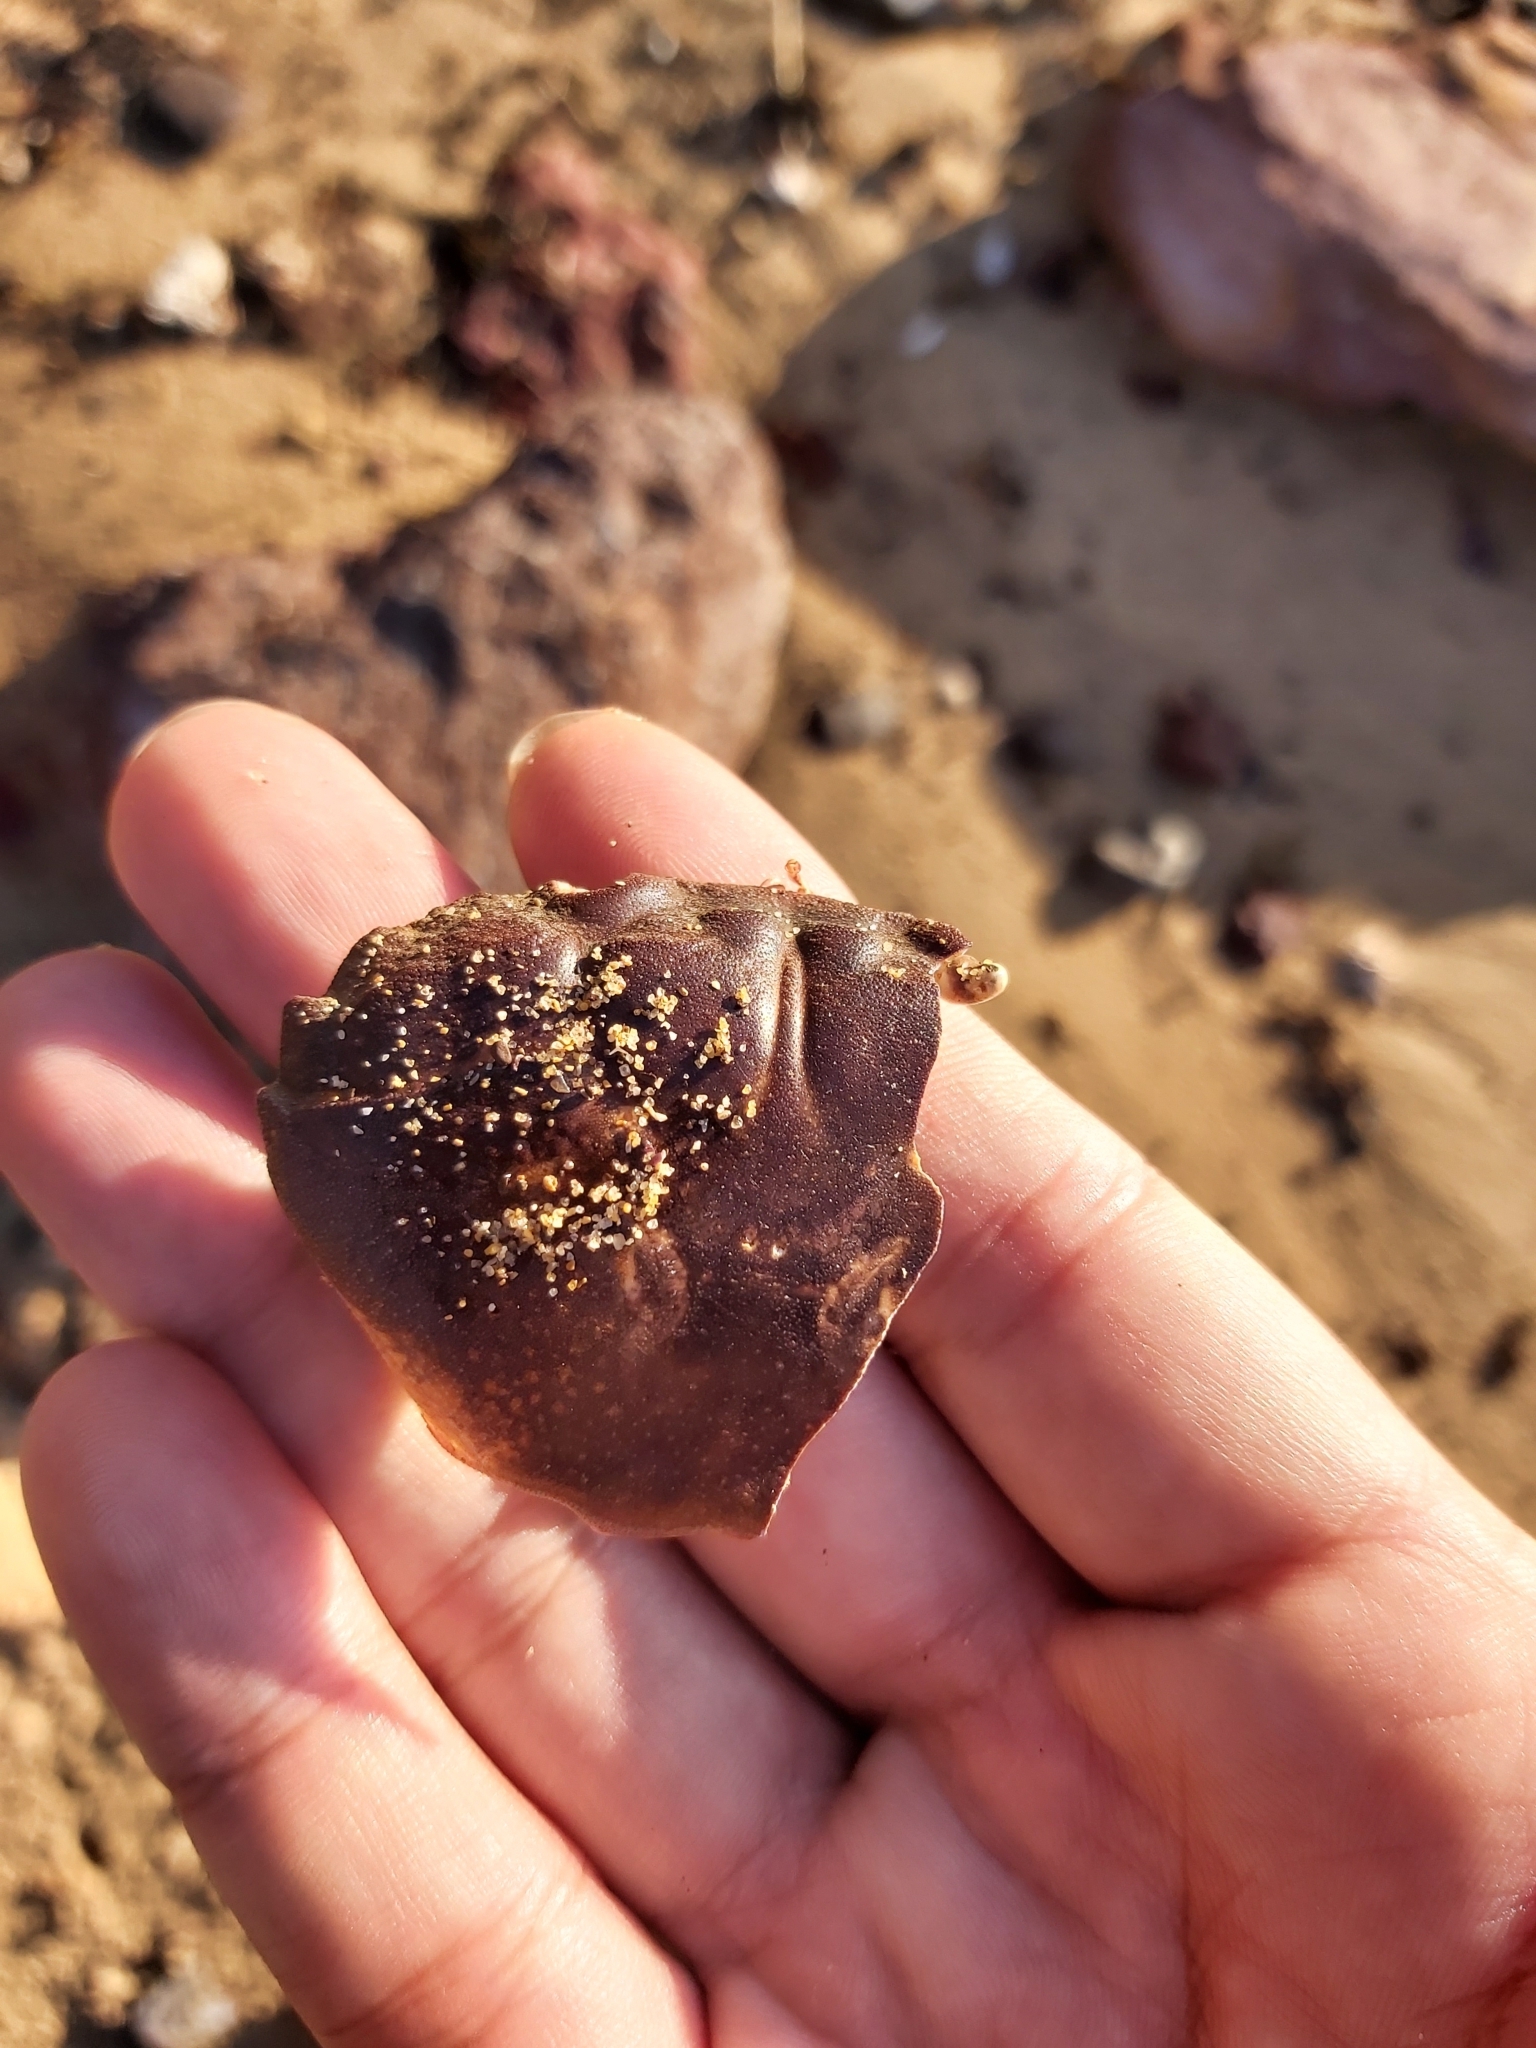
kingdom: Animalia
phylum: Arthropoda
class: Malacostraca
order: Decapoda
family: Oziidae
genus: Ozius
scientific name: Ozius truncatus
